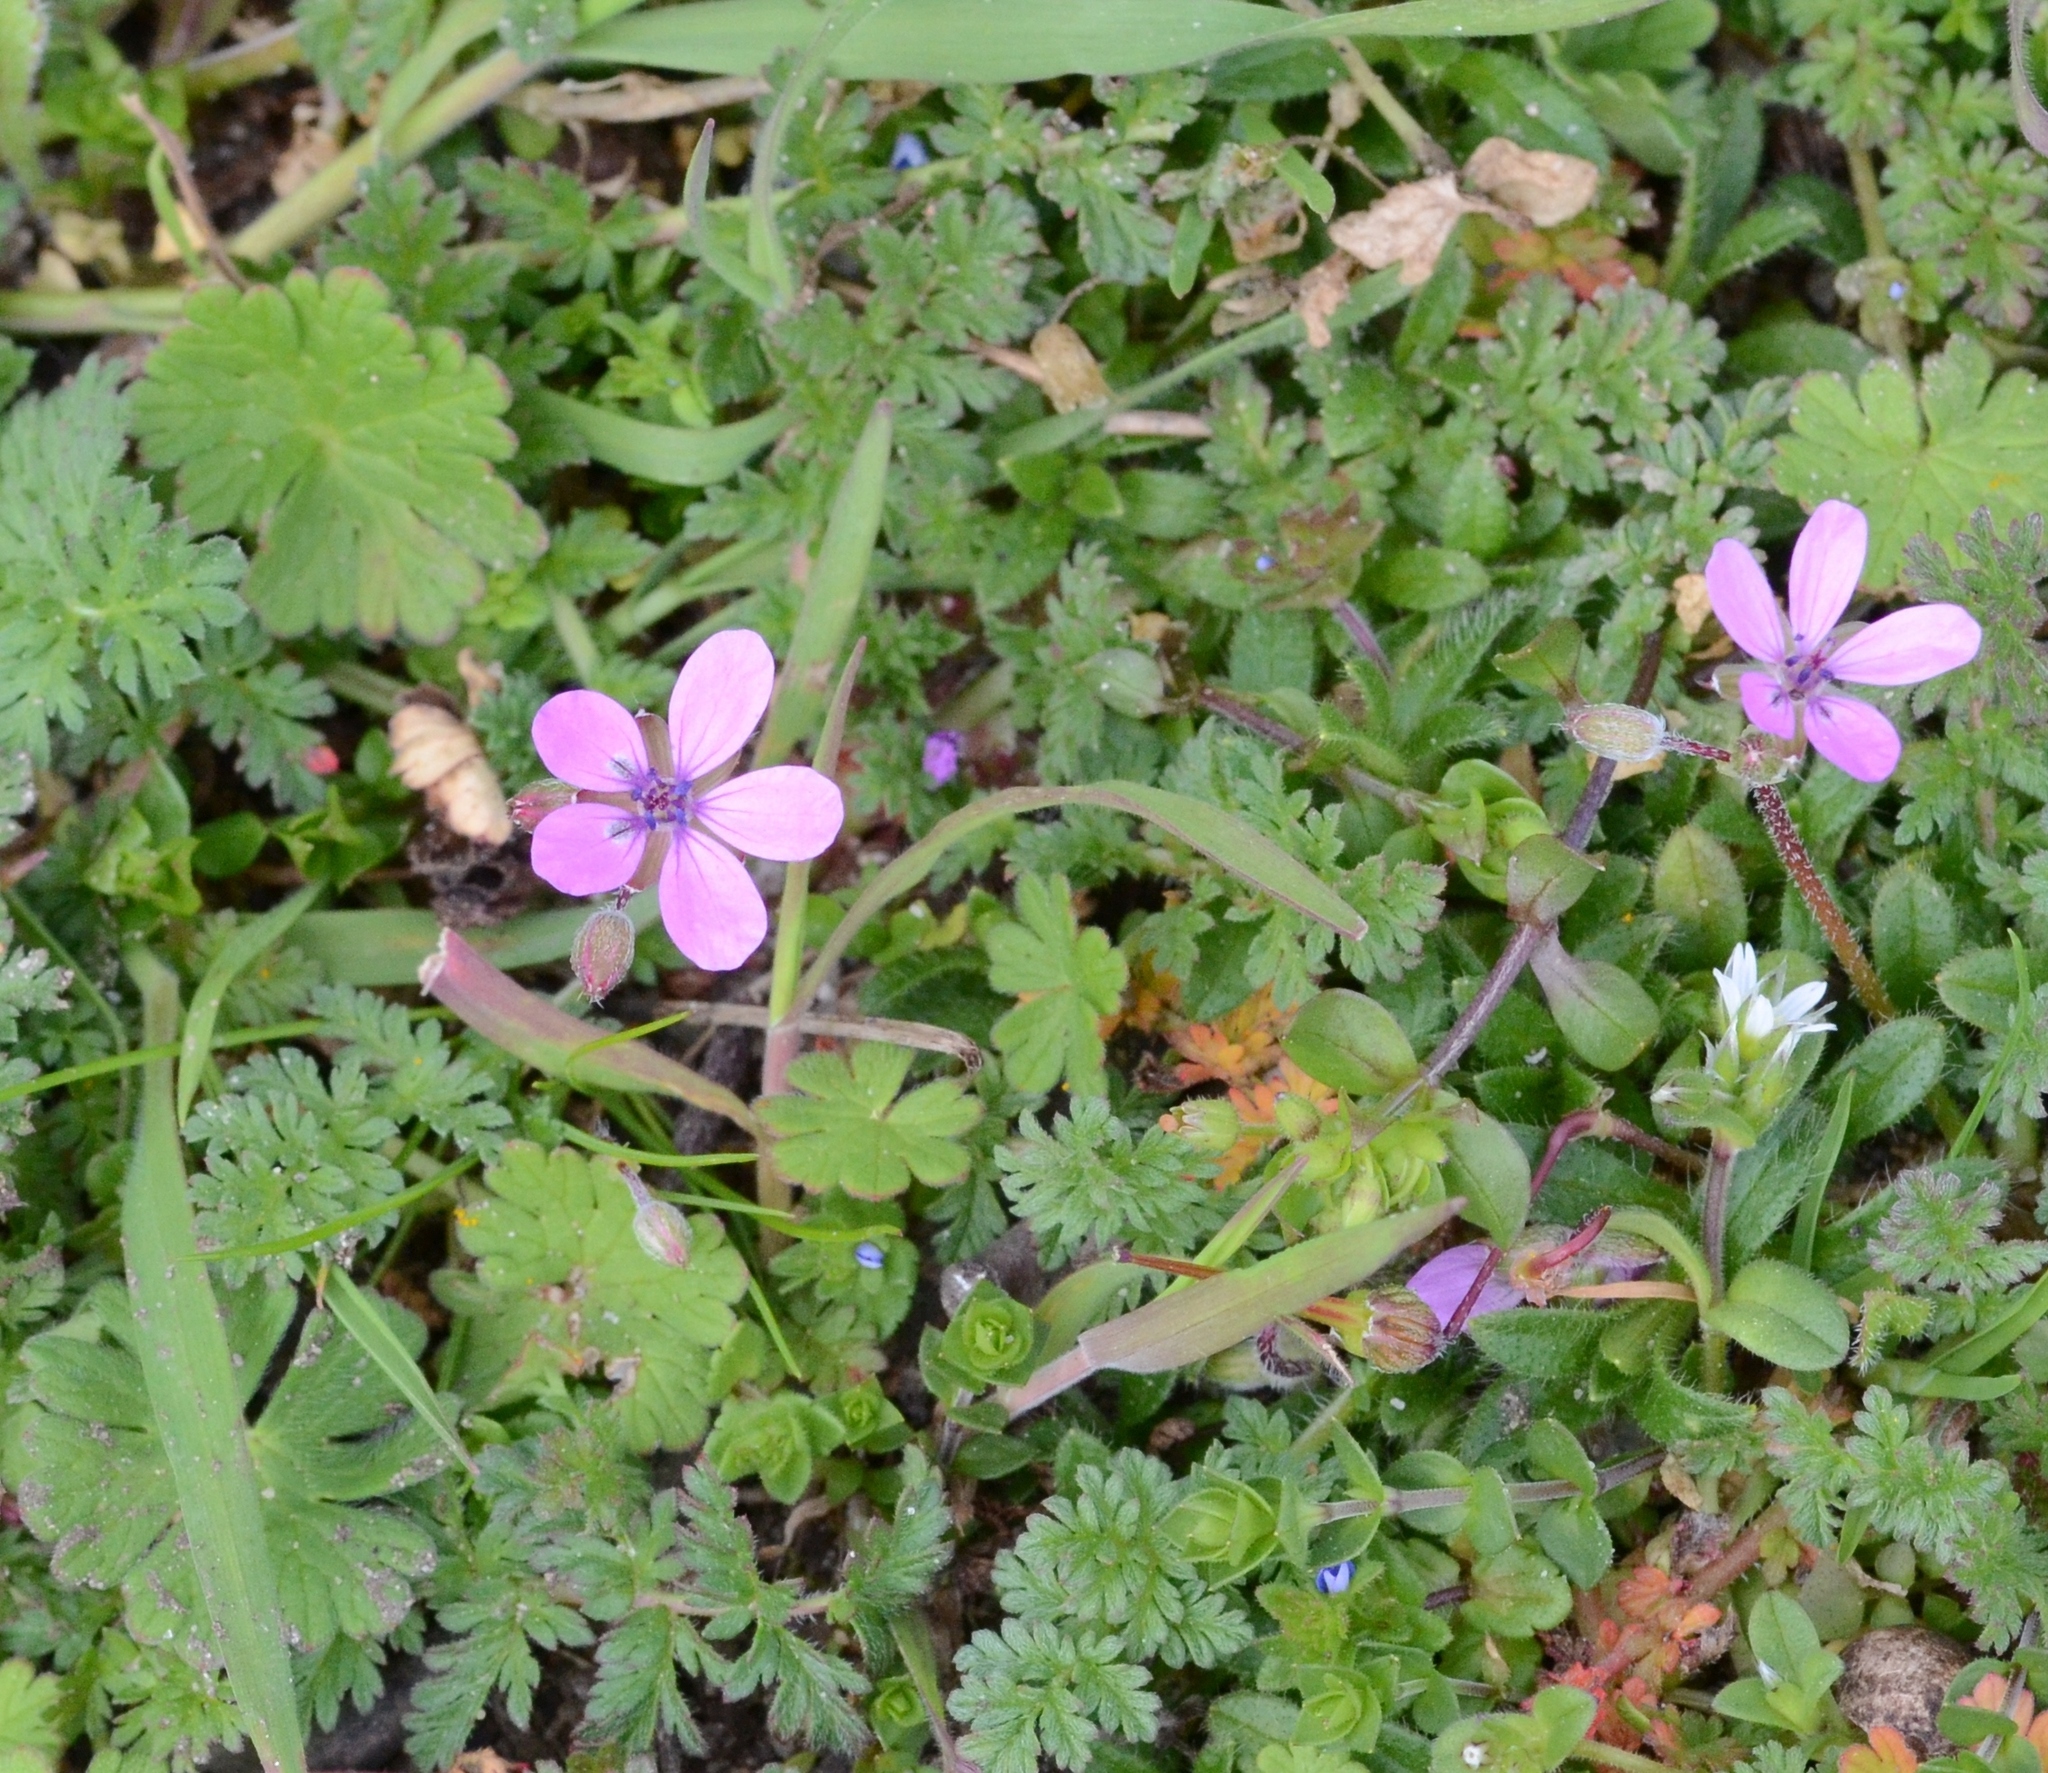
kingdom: Plantae
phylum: Tracheophyta
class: Magnoliopsida
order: Geraniales
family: Geraniaceae
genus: Erodium
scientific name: Erodium cicutarium
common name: Common stork's-bill
